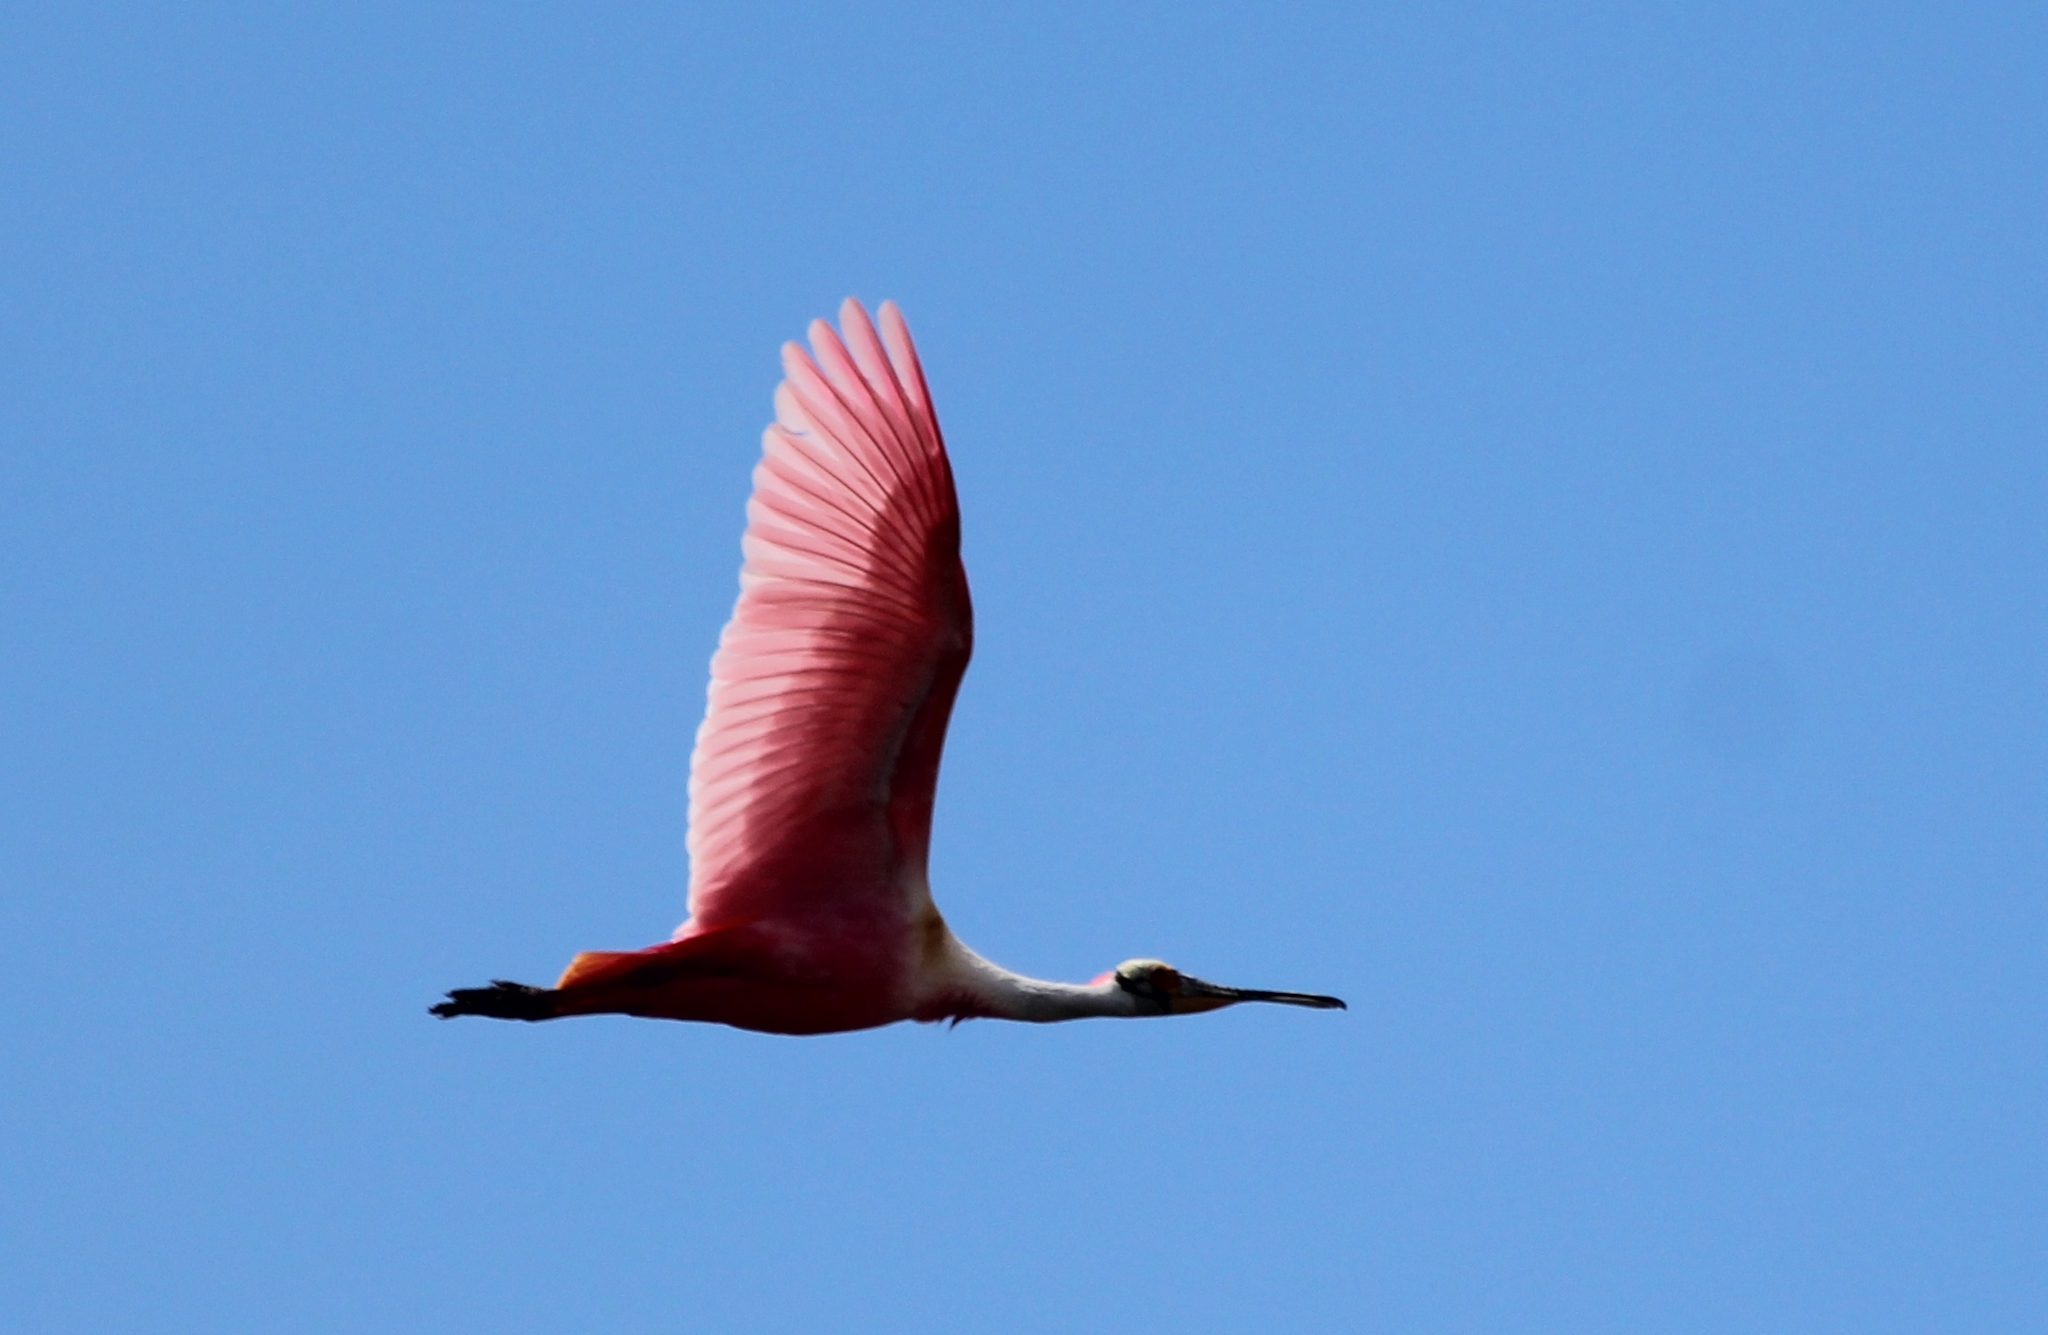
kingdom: Animalia
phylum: Chordata
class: Aves
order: Pelecaniformes
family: Threskiornithidae
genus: Platalea
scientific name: Platalea ajaja
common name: Roseate spoonbill
